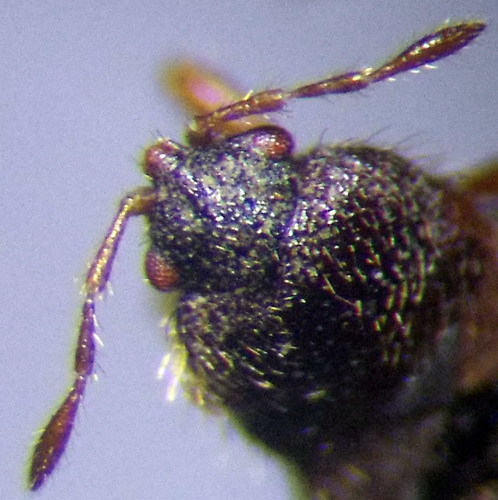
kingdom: Animalia
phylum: Arthropoda
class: Insecta
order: Hemiptera
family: Blissidae
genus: Dimorphopterus
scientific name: Dimorphopterus doriae
